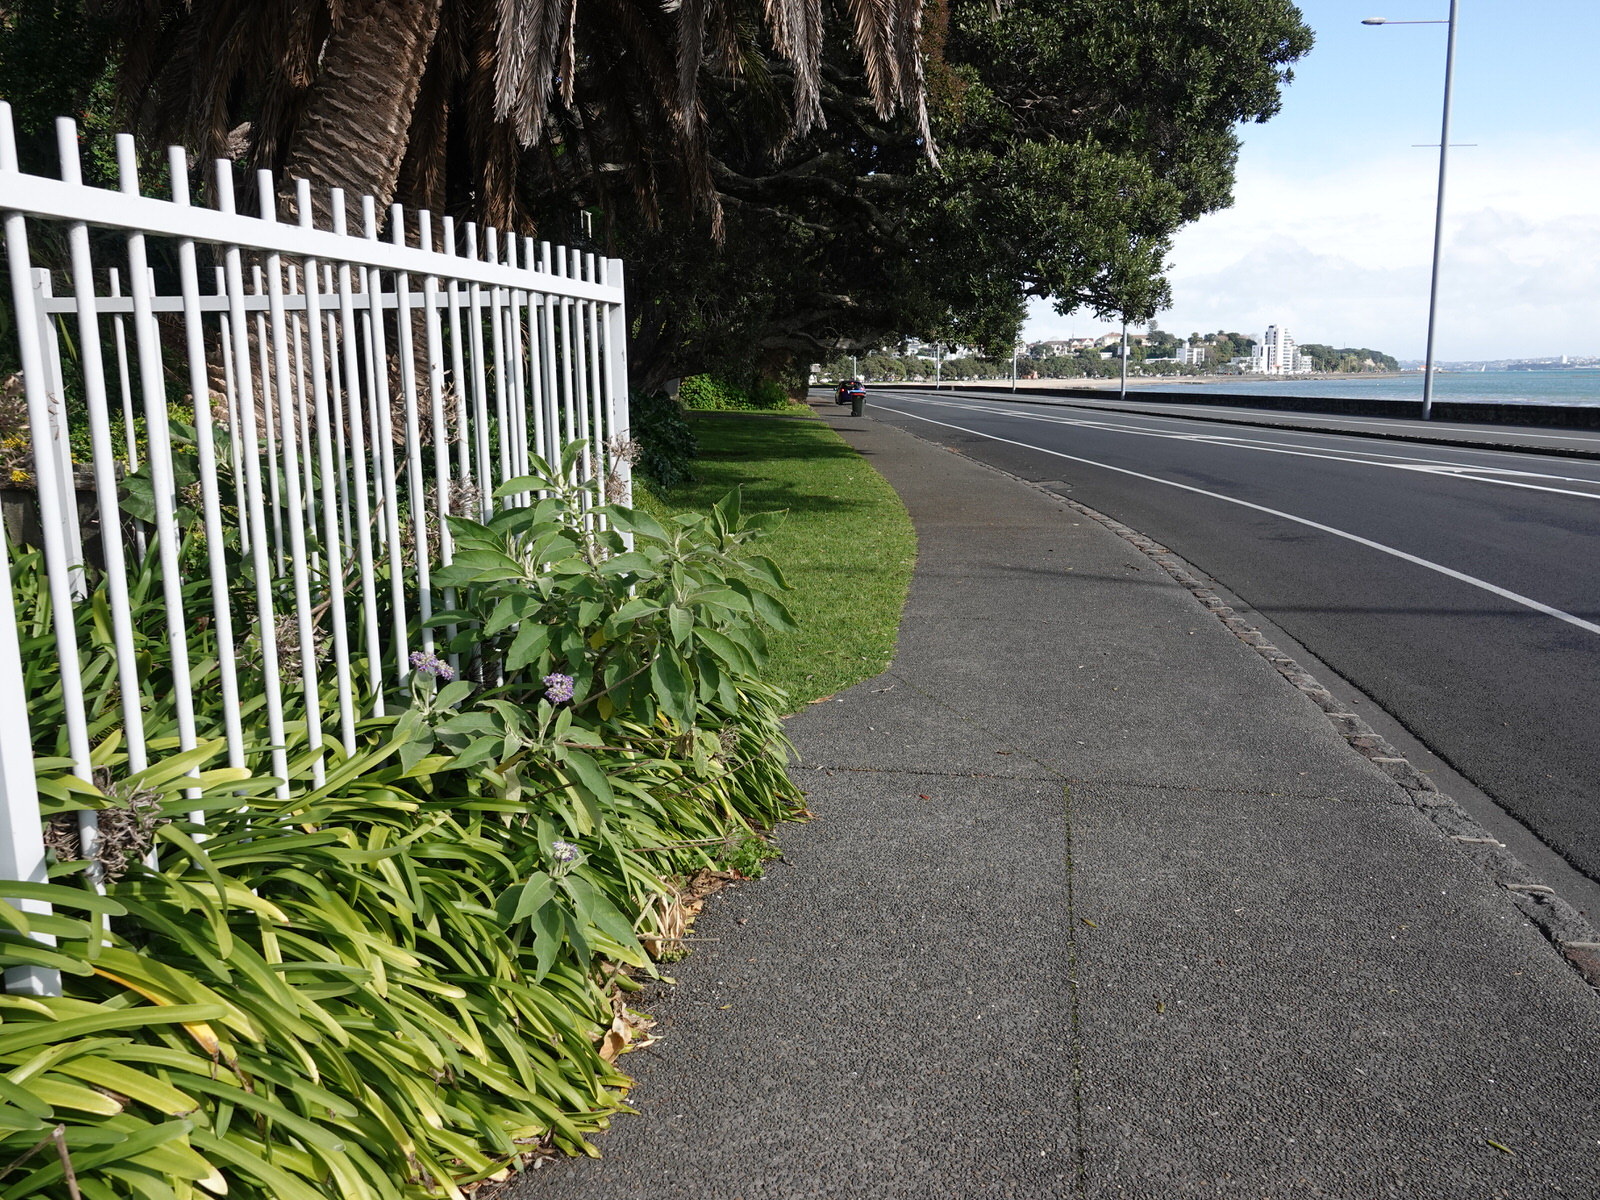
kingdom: Plantae
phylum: Tracheophyta
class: Magnoliopsida
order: Solanales
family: Solanaceae
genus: Solanum
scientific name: Solanum mauritianum
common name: Earleaf nightshade
